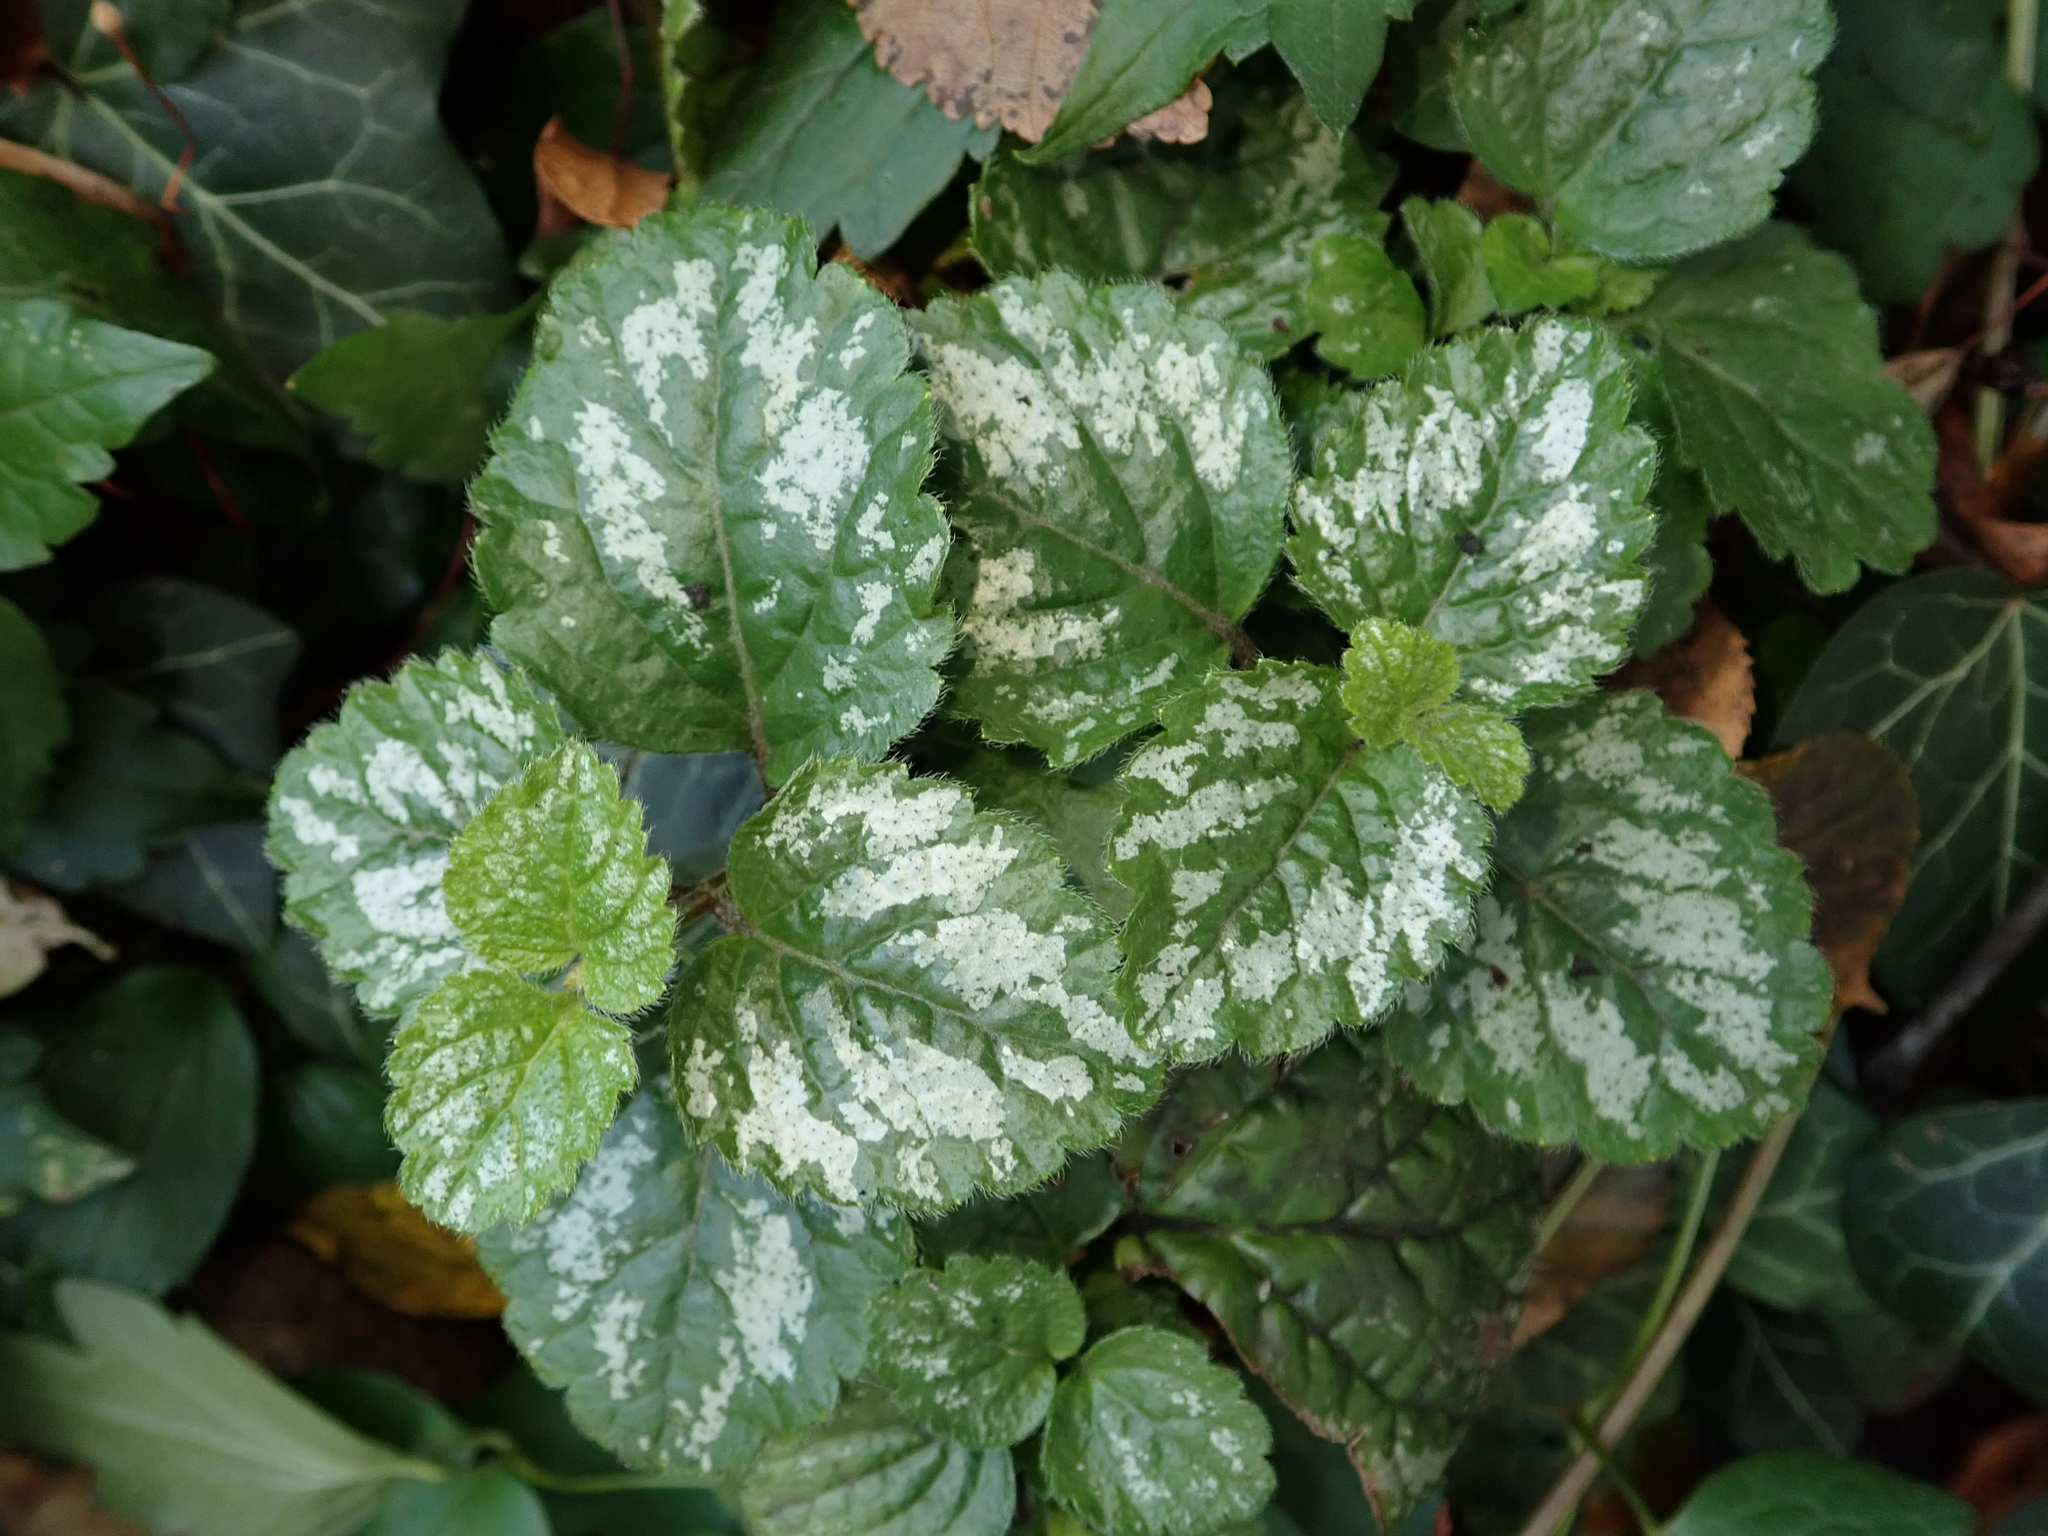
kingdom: Plantae
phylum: Tracheophyta
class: Magnoliopsida
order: Lamiales
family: Lamiaceae
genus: Lamium
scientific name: Lamium galeobdolon
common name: Yellow archangel
